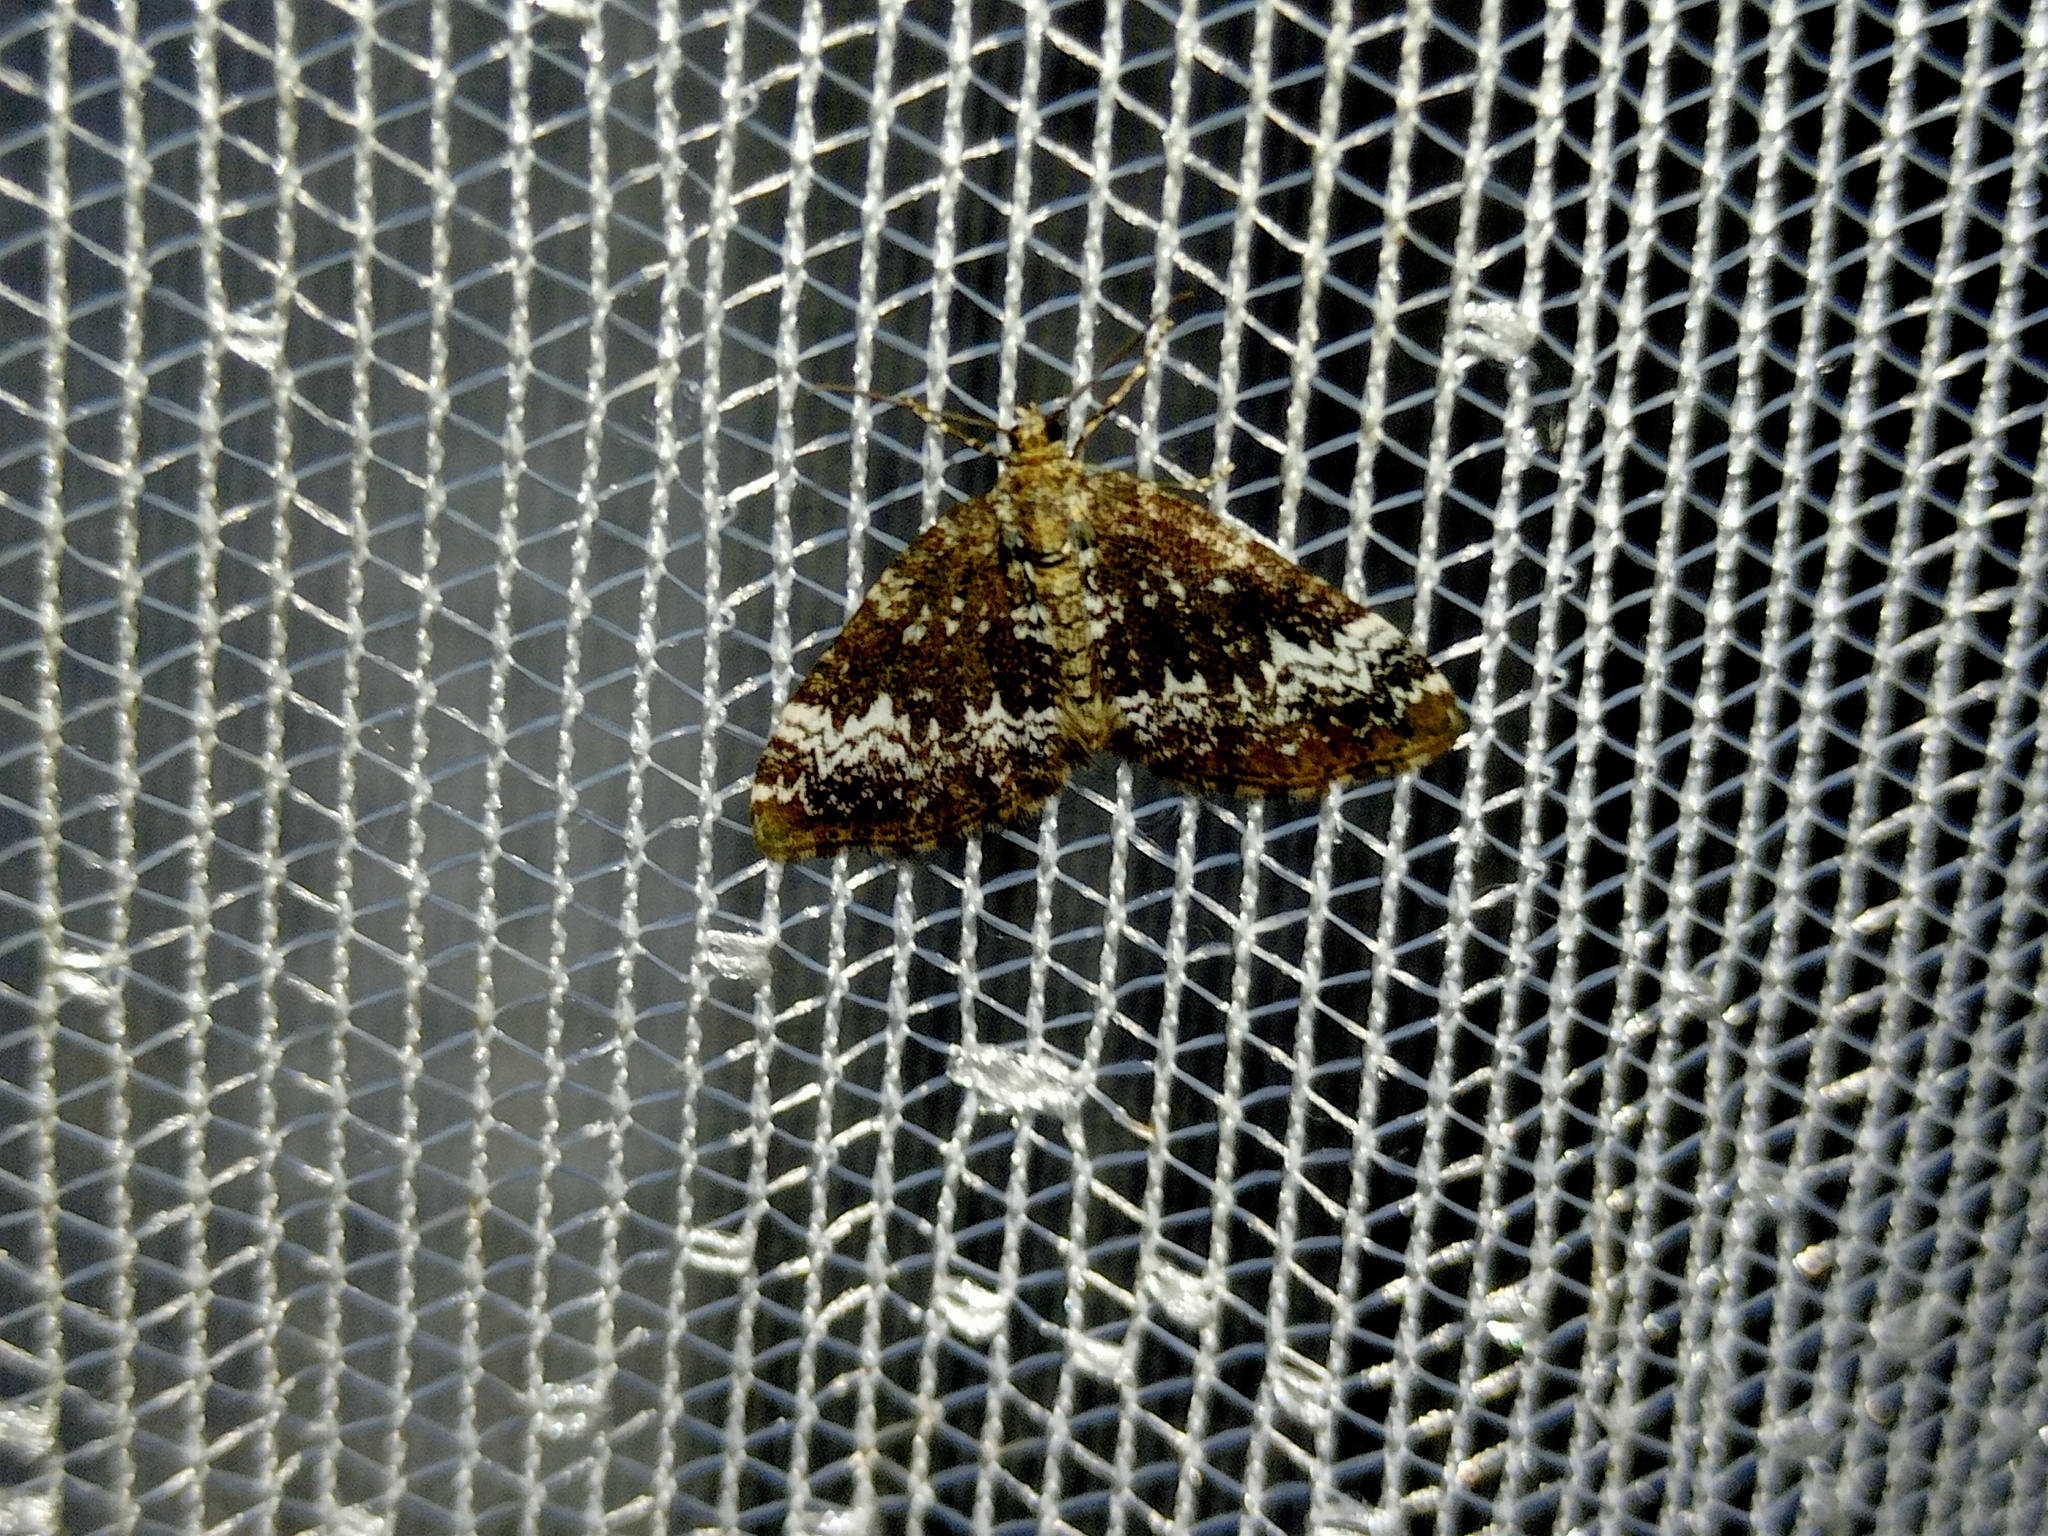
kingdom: Animalia
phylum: Arthropoda
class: Insecta
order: Lepidoptera
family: Geometridae
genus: Perizoma
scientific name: Perizoma alchemillata
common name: Small rivulet
